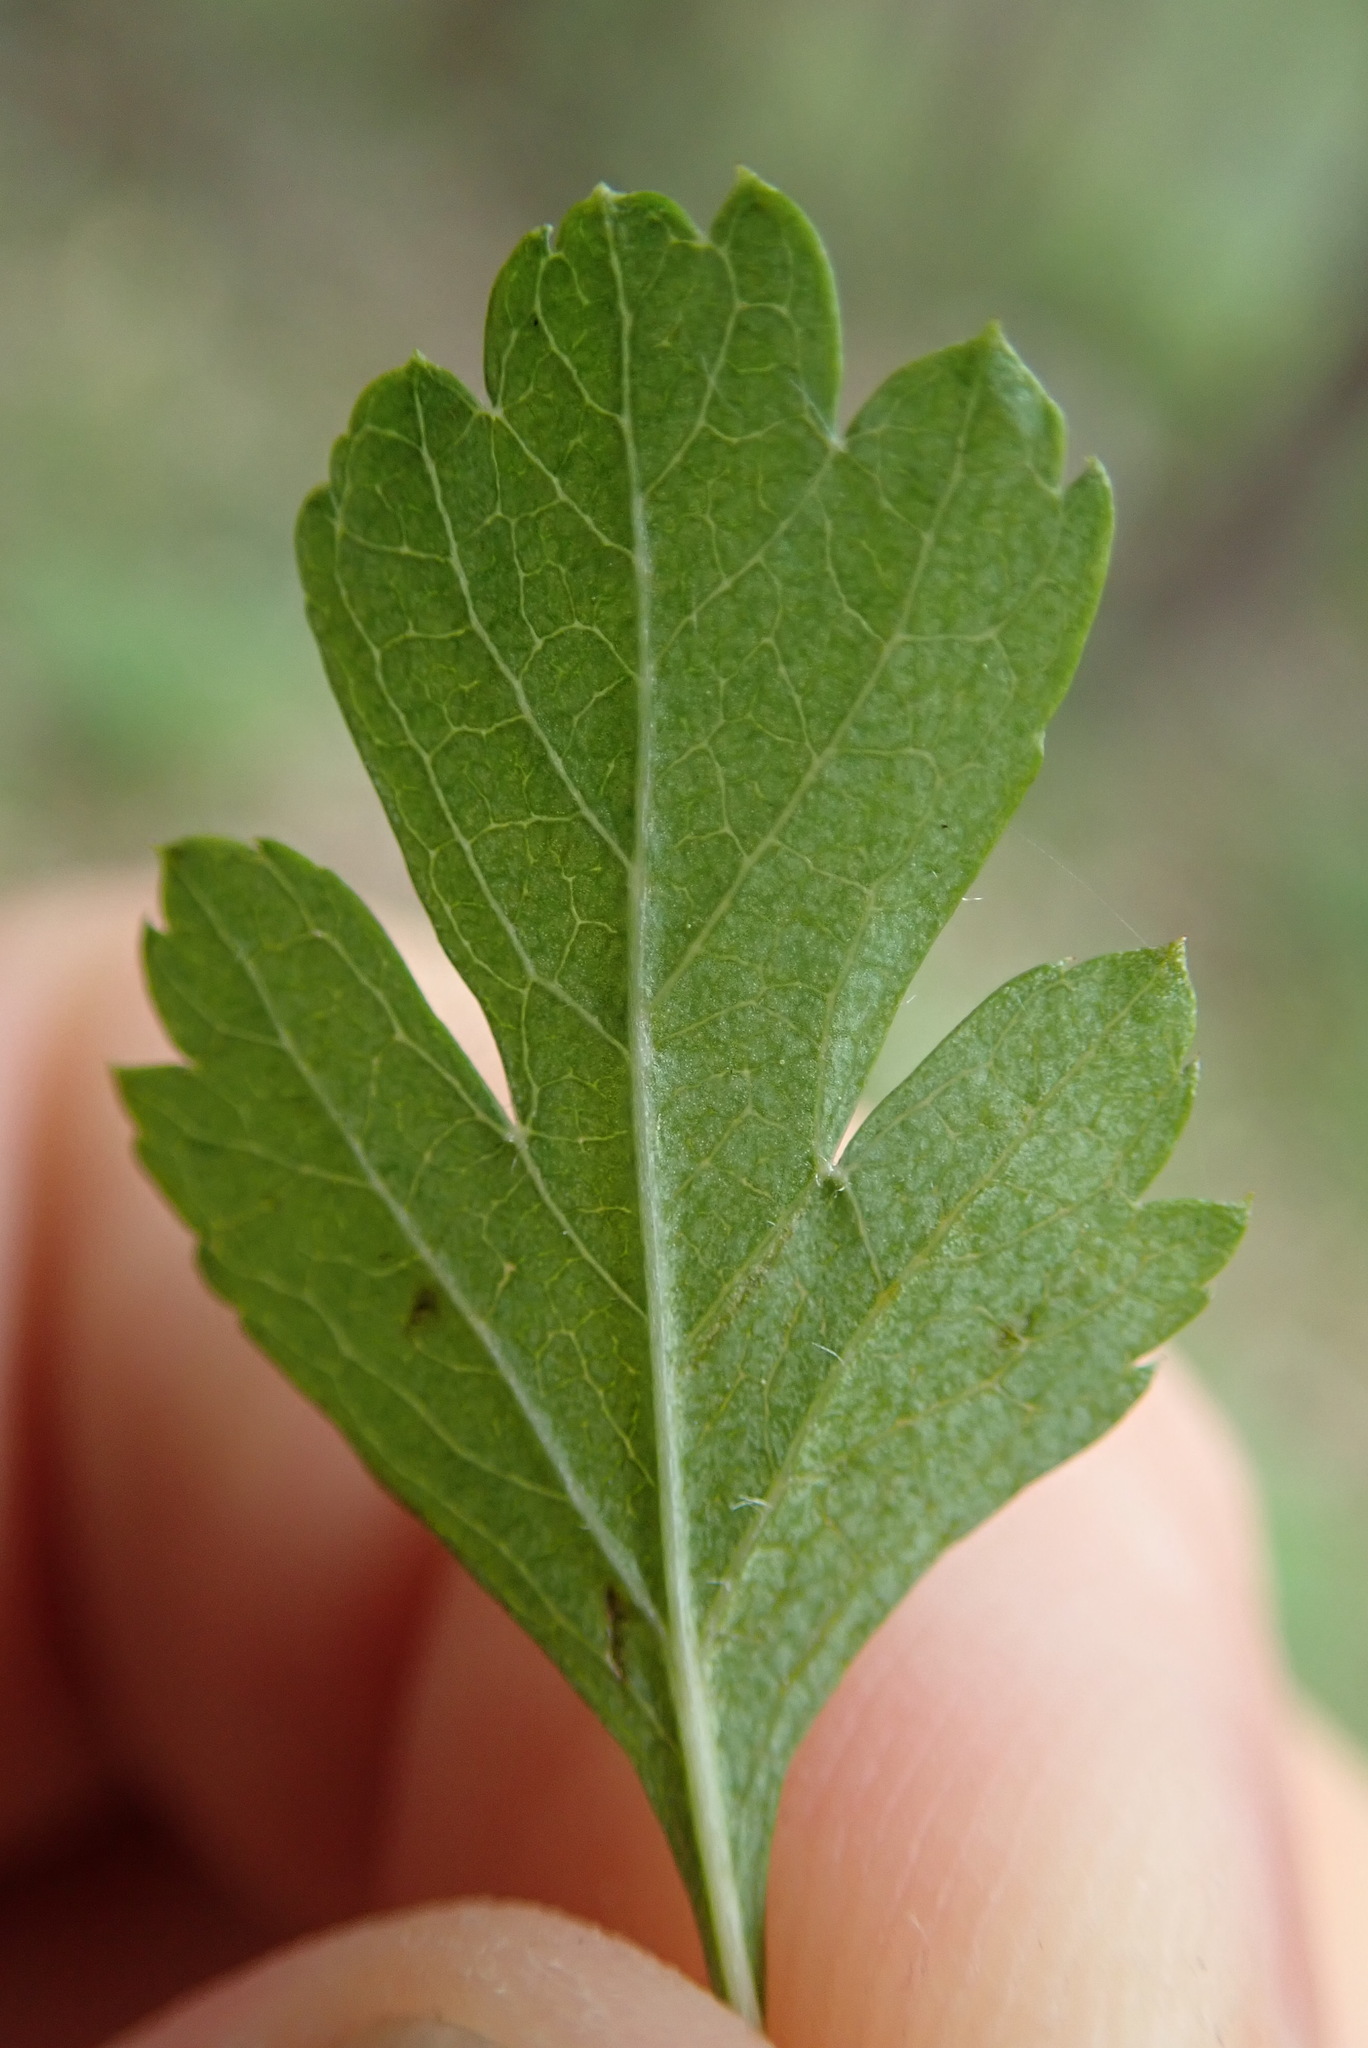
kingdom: Plantae
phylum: Tracheophyta
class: Magnoliopsida
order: Rosales
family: Rosaceae
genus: Crataegus
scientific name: Crataegus monogyna
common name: Hawthorn
